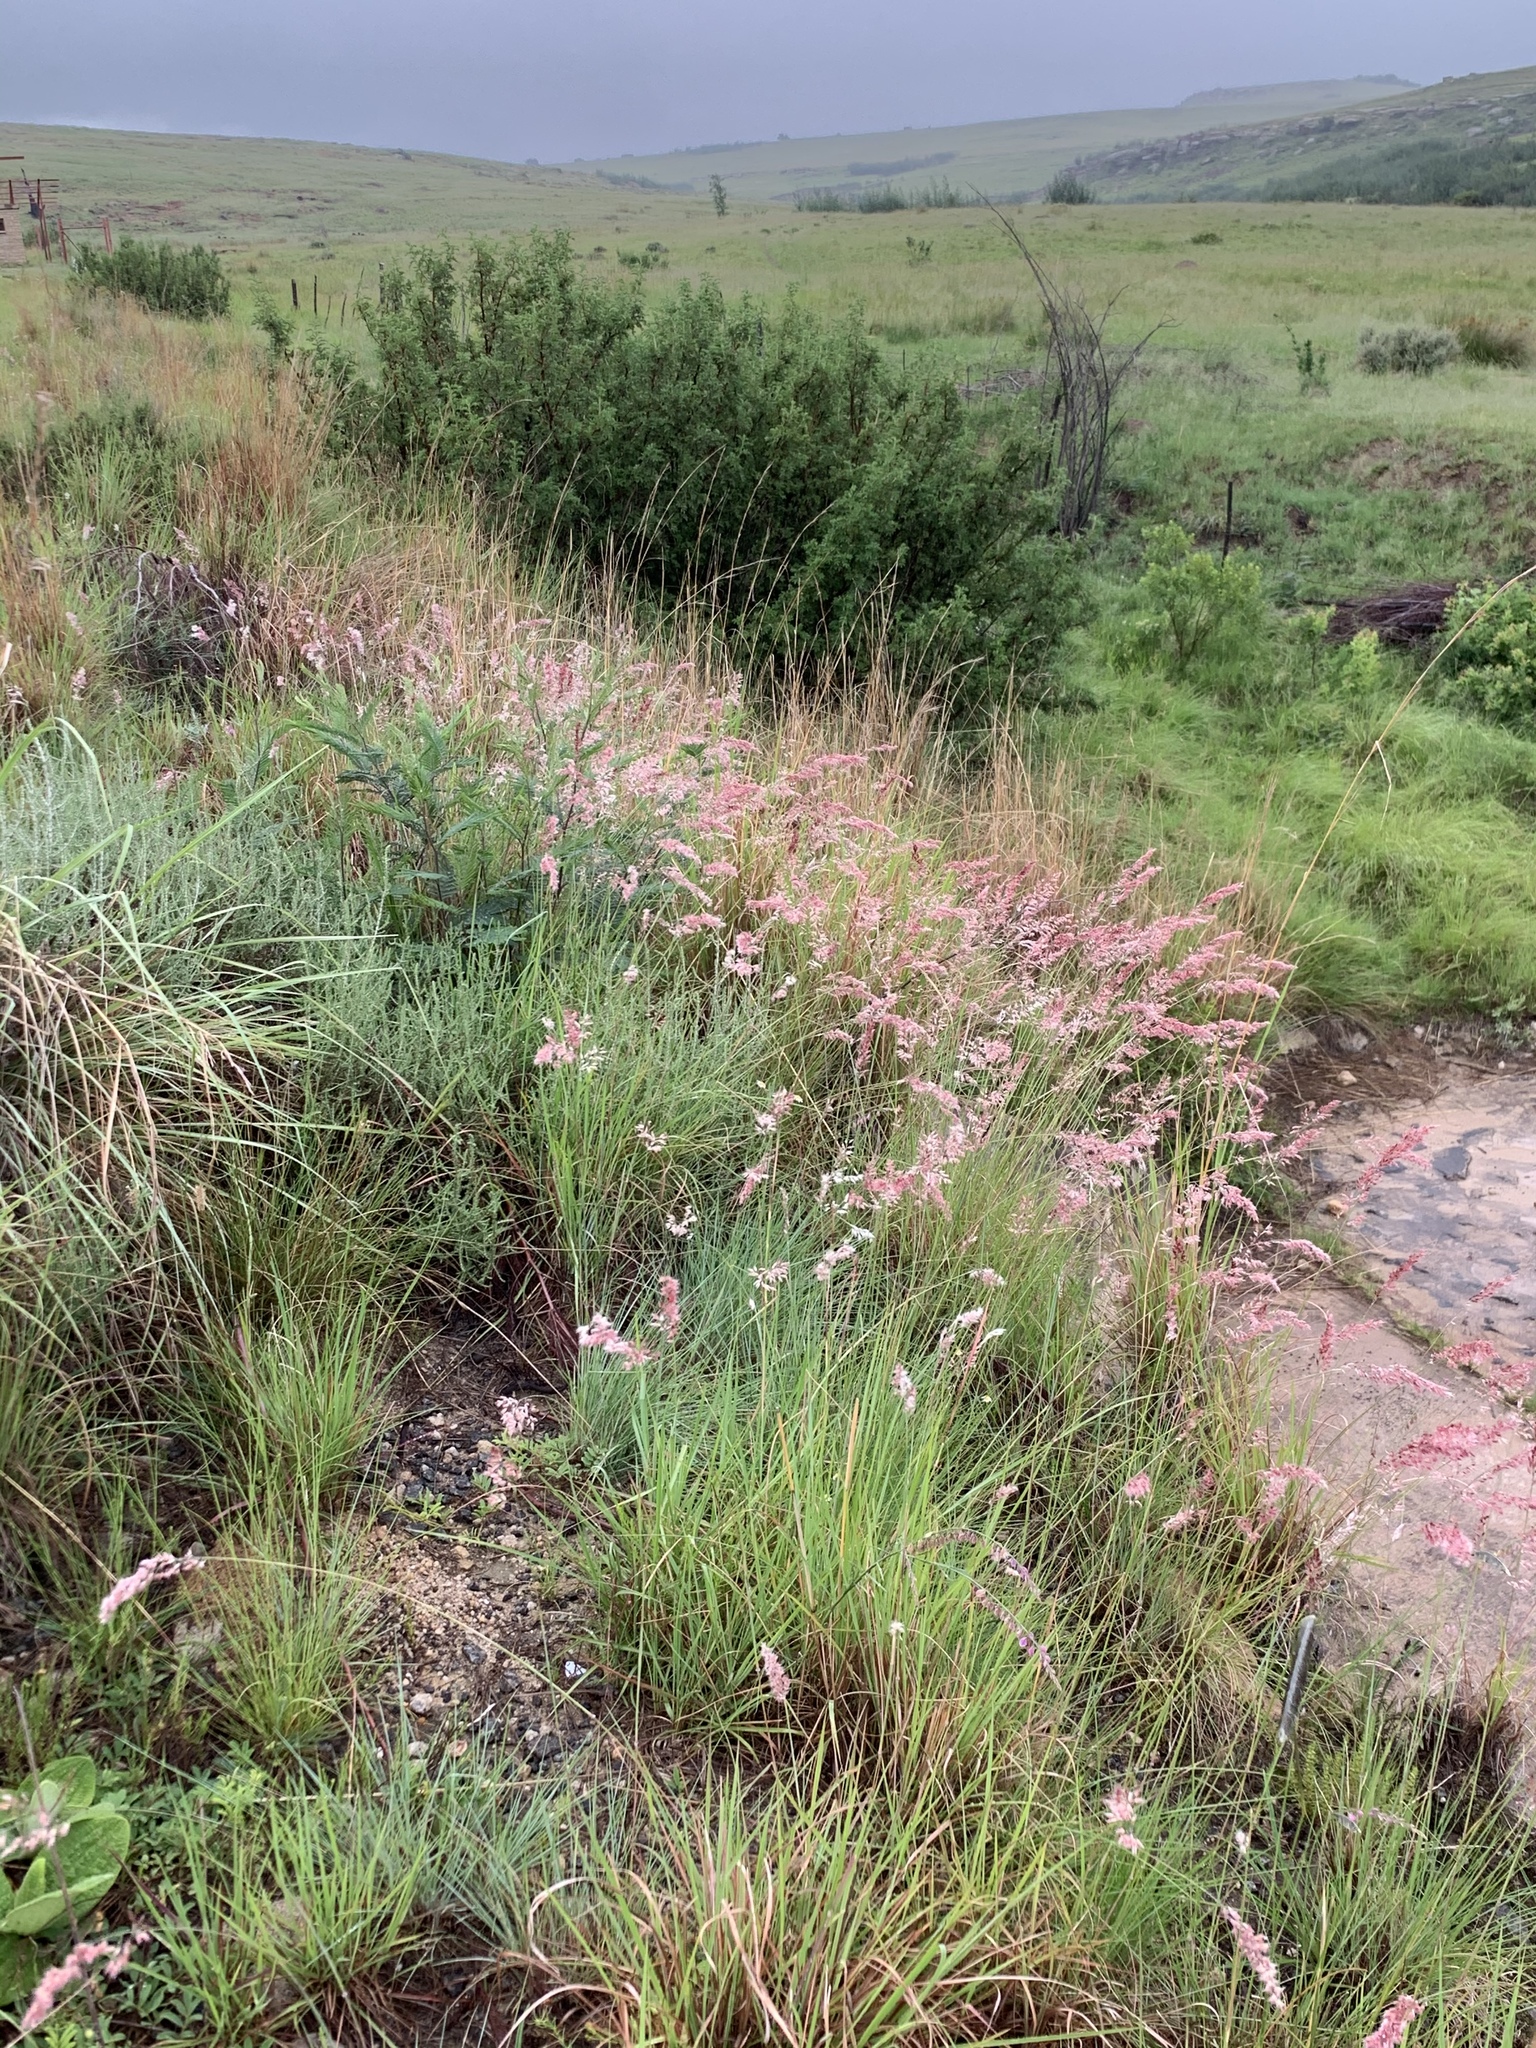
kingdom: Plantae
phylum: Tracheophyta
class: Liliopsida
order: Poales
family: Poaceae
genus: Melinis
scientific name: Melinis repens
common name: Rose natal grass
